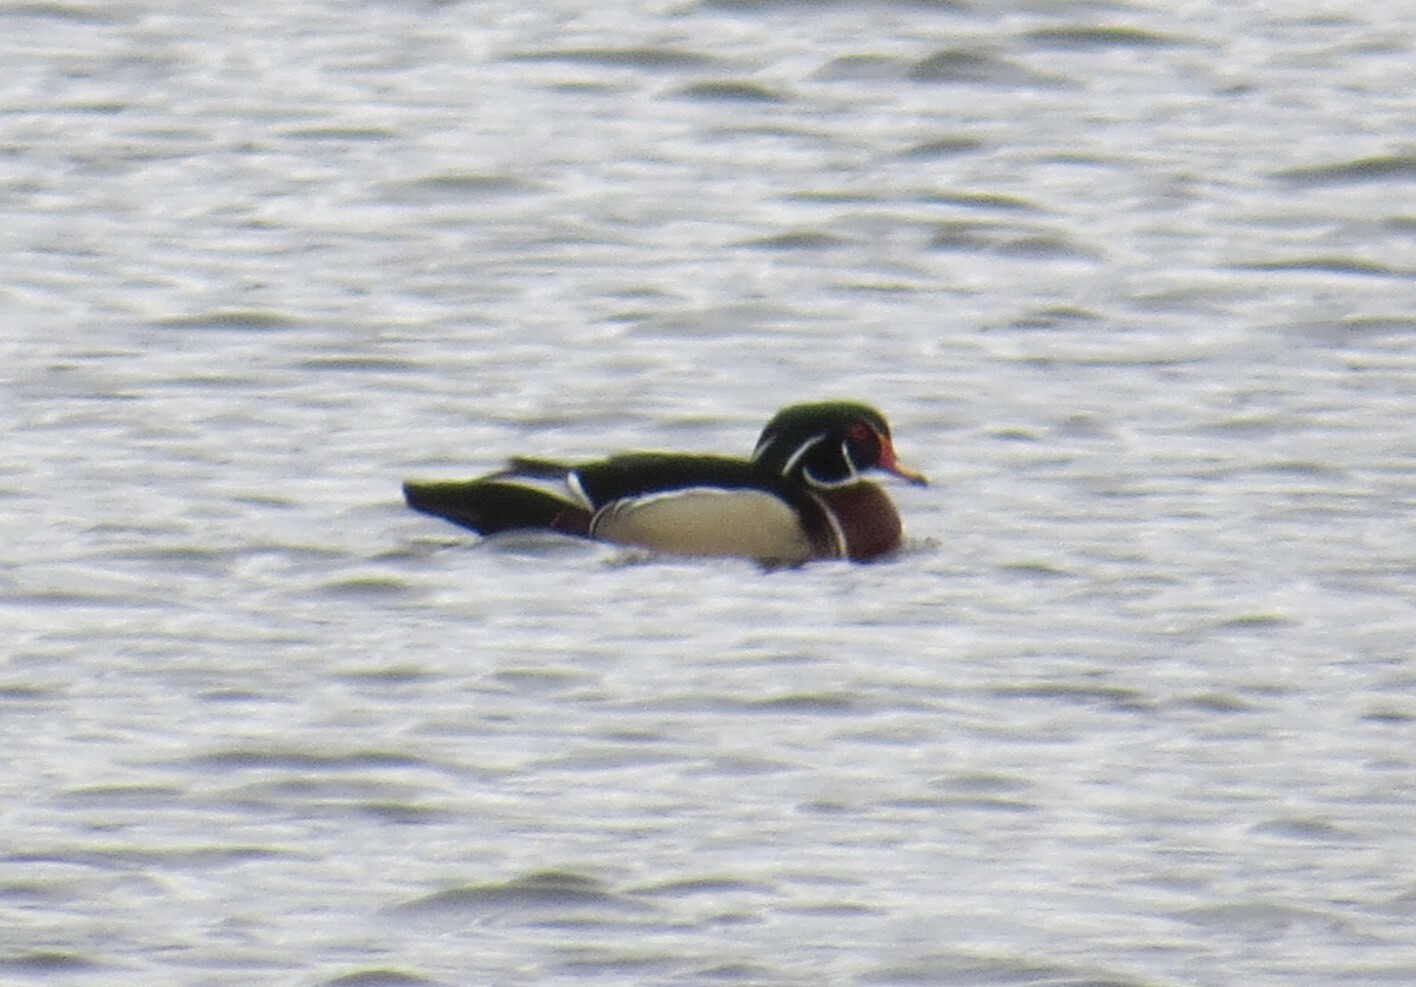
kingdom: Animalia
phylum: Chordata
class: Aves
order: Anseriformes
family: Anatidae
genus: Aix
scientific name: Aix sponsa
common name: Wood duck
